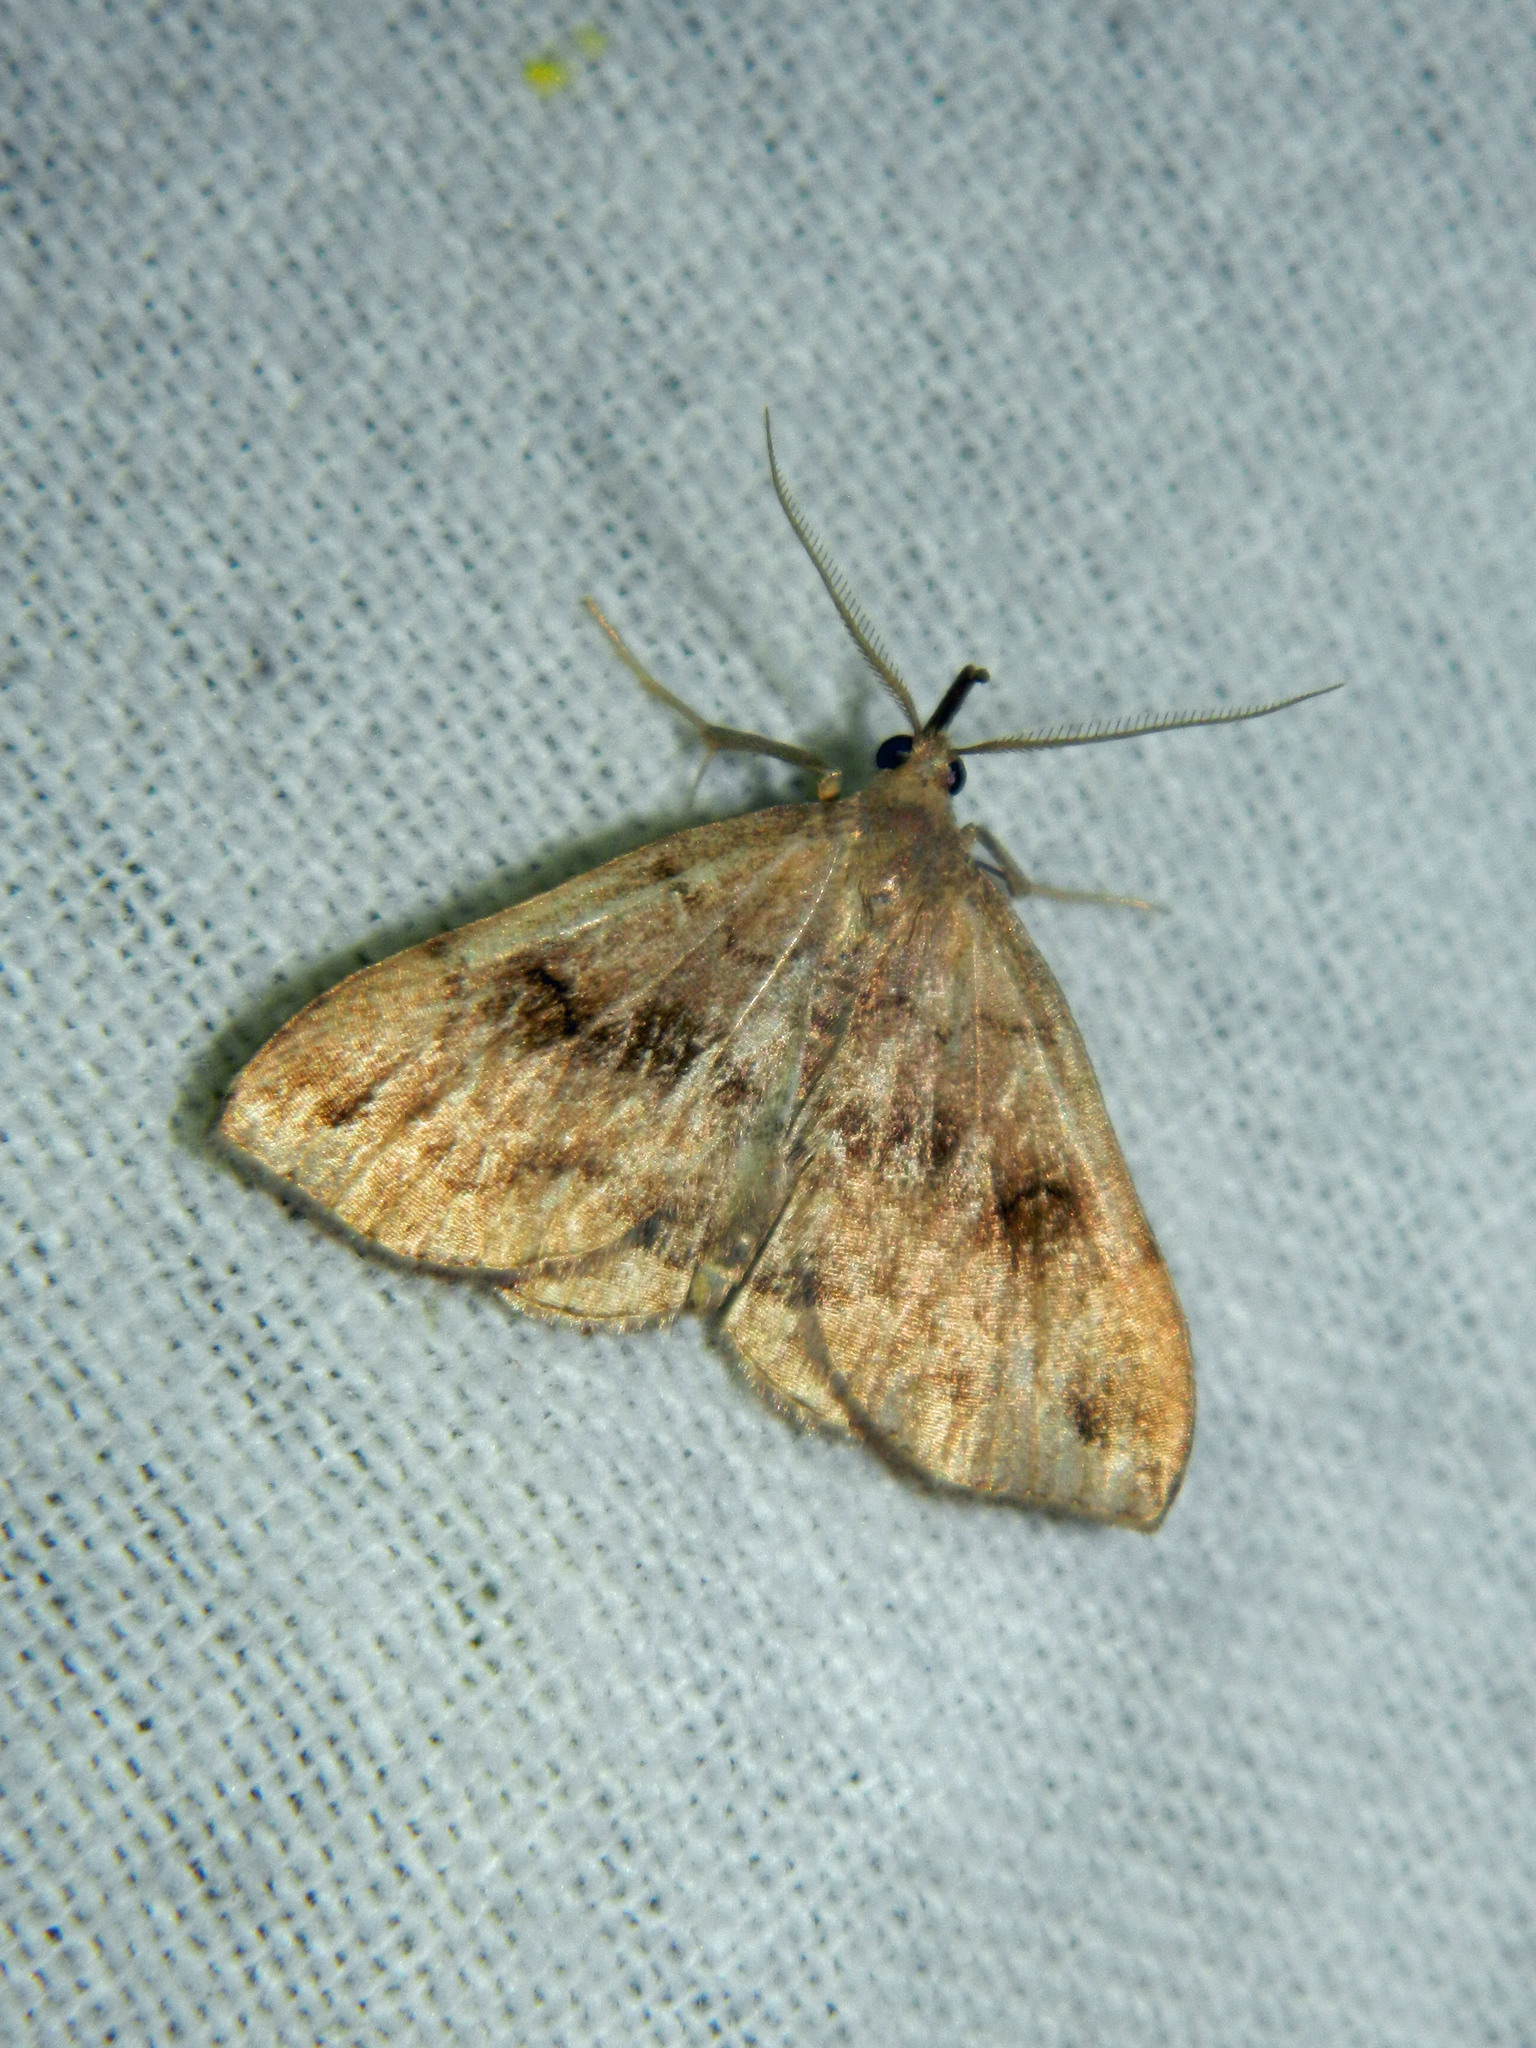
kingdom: Animalia
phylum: Arthropoda
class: Insecta
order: Lepidoptera
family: Erebidae
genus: Phalaenostola
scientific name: Phalaenostola eumelusalis
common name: Dark phalaenostola moth
